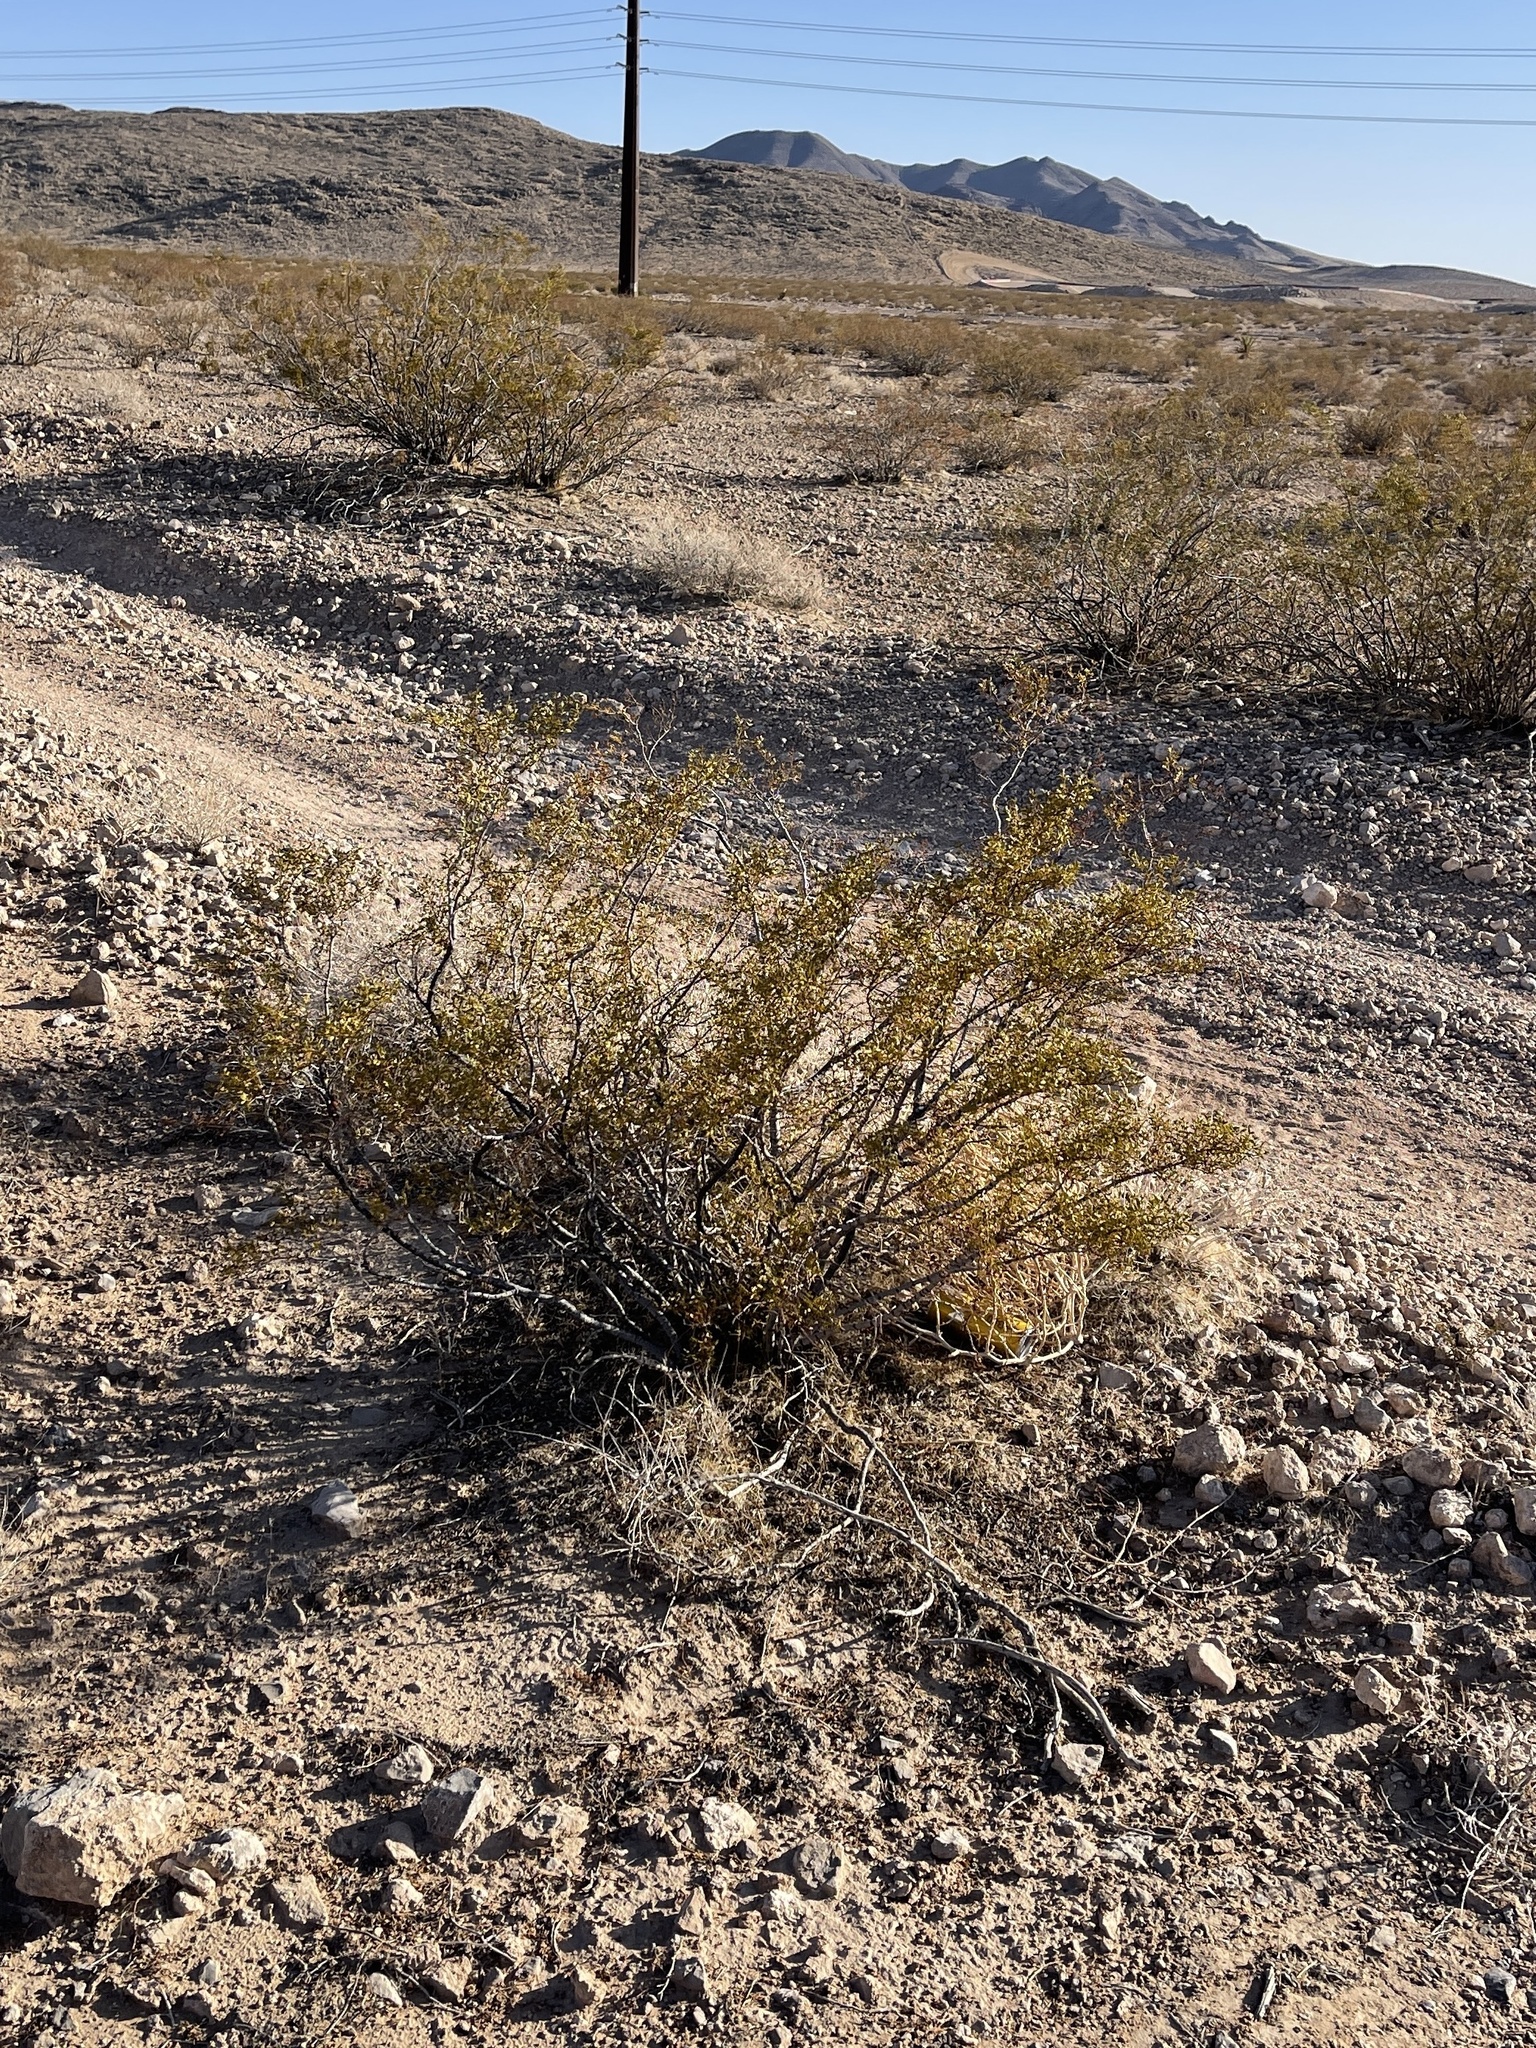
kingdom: Plantae
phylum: Tracheophyta
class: Magnoliopsida
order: Zygophyllales
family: Zygophyllaceae
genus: Larrea
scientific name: Larrea tridentata
